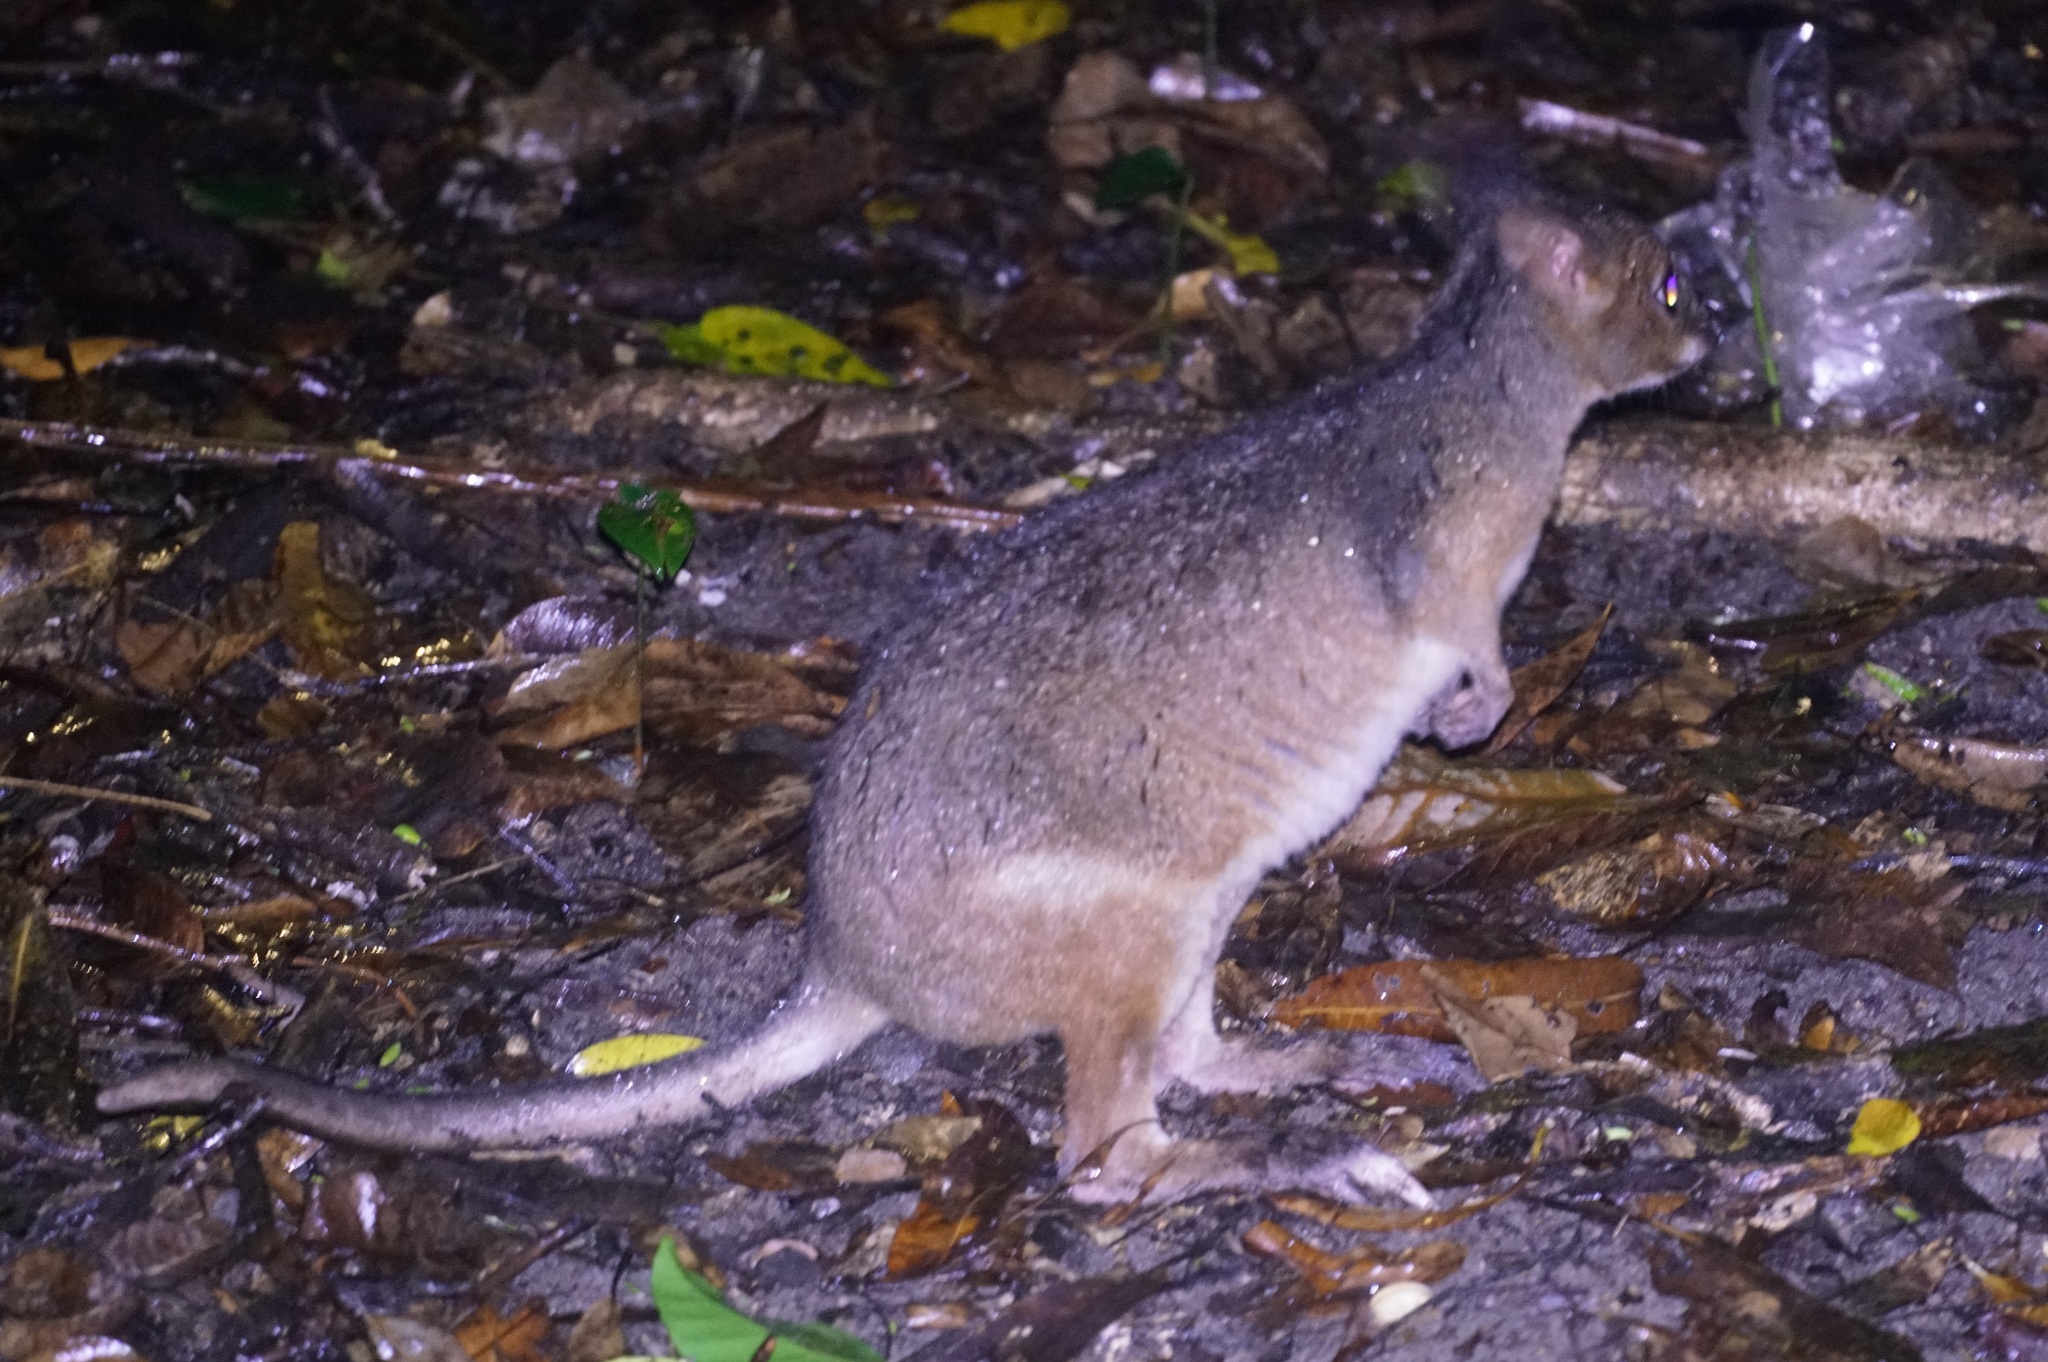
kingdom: Animalia
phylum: Chordata
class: Mammalia
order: Diprotodontia
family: Macropodidae
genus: Thylogale
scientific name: Thylogale stigmatica
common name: Red-legged pademelon
